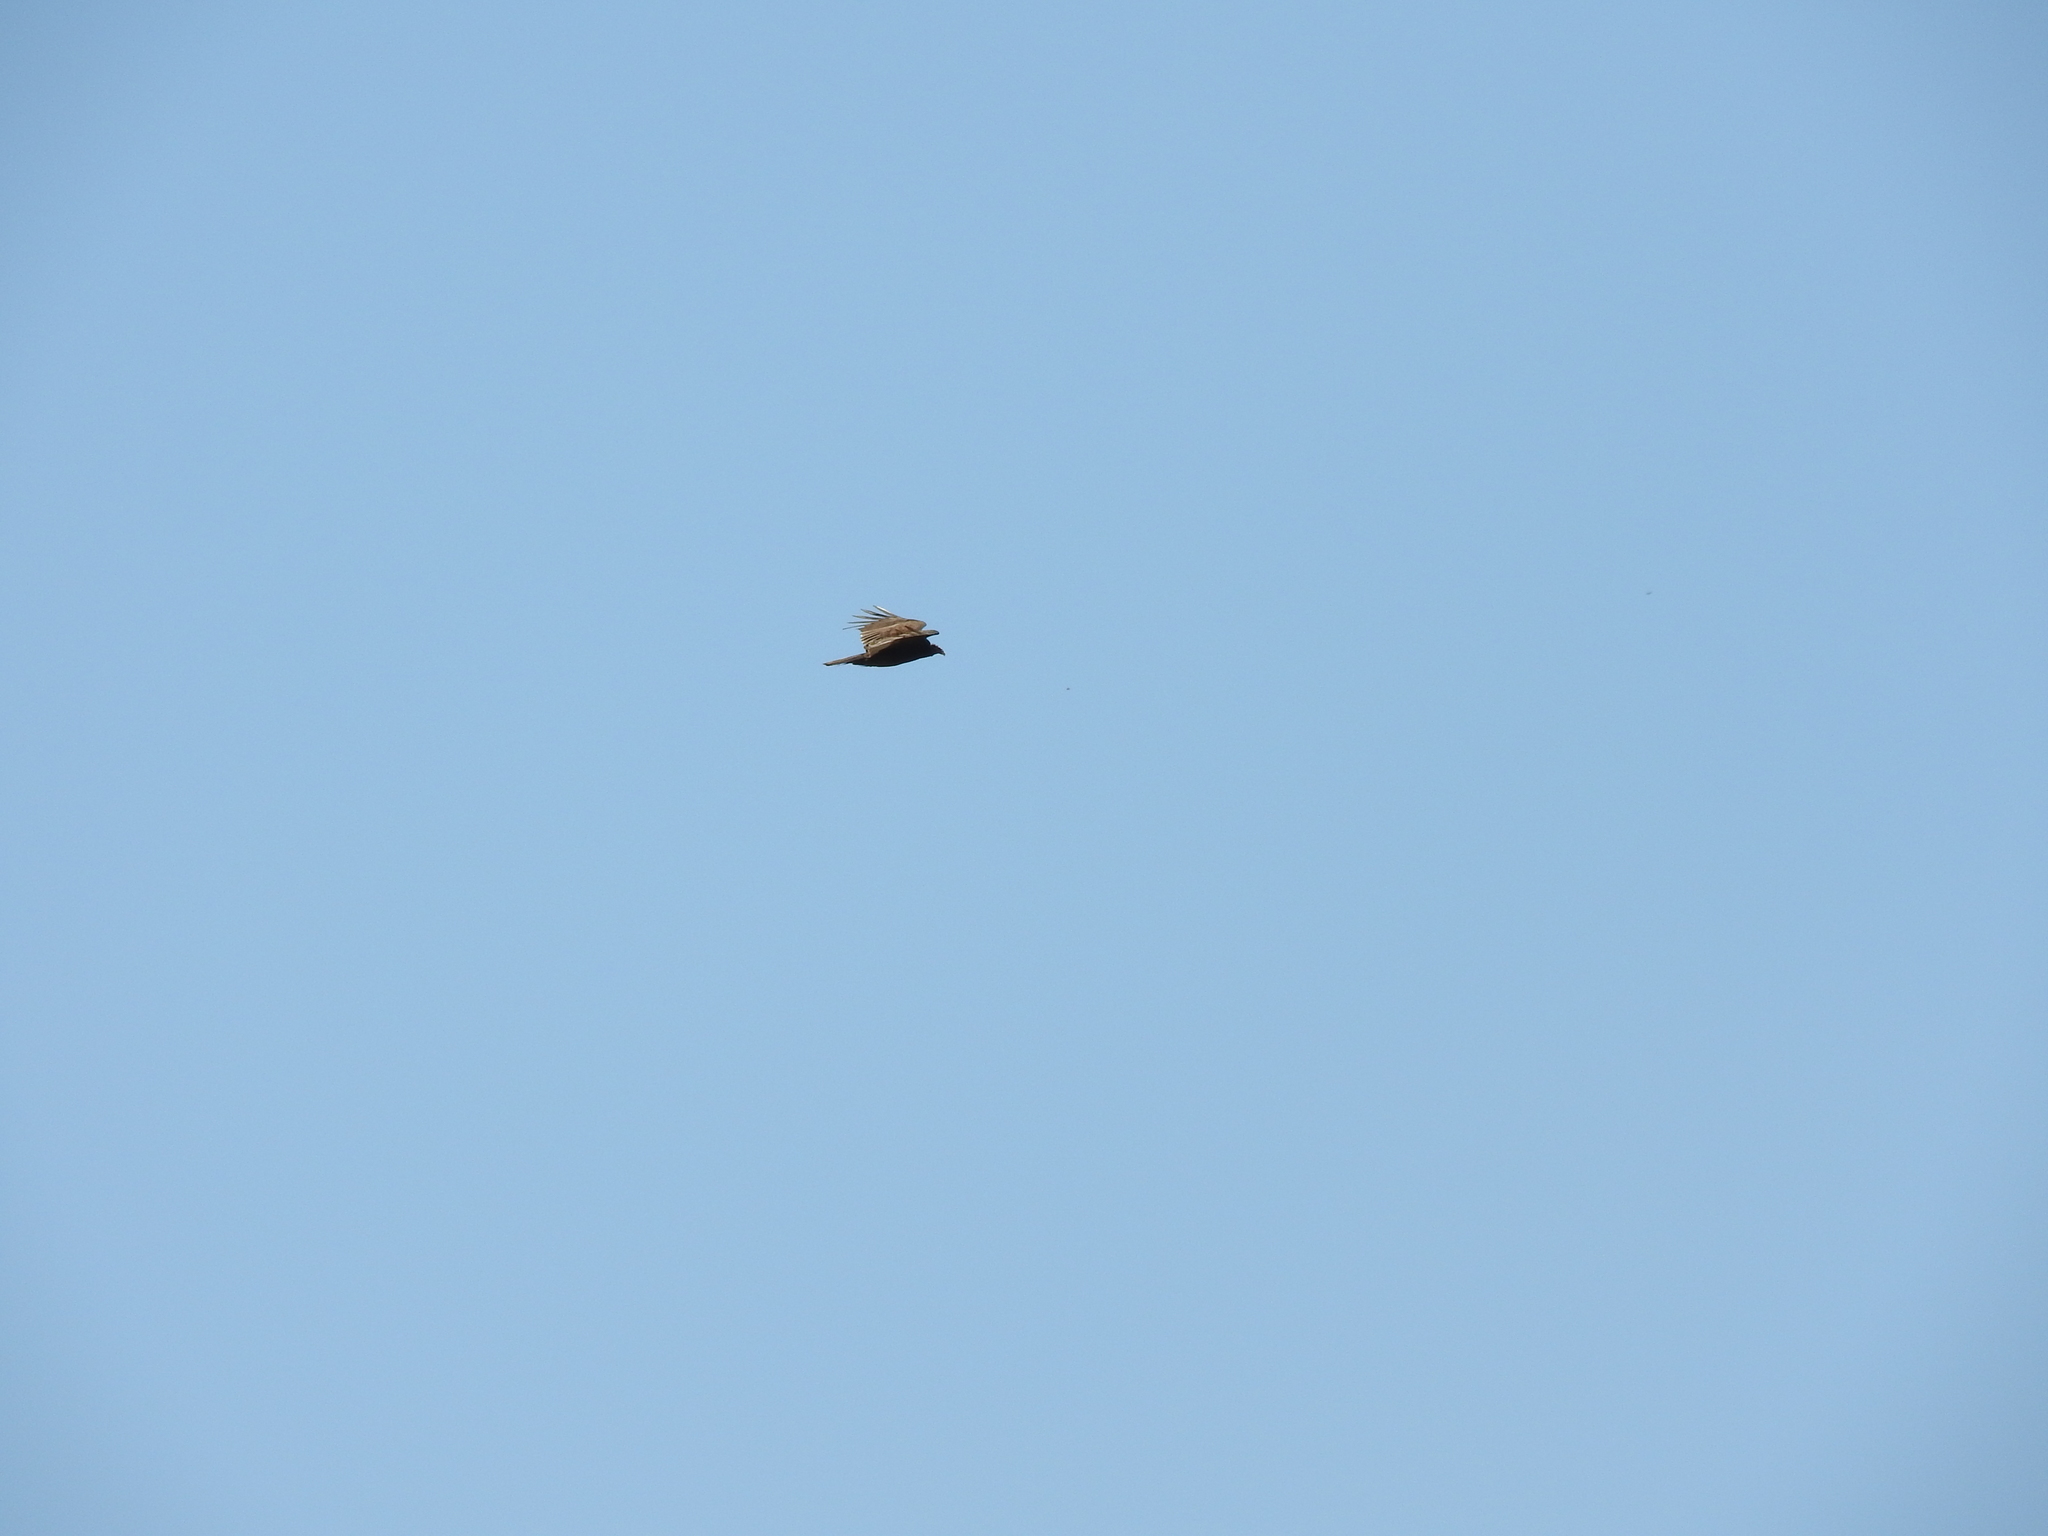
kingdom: Animalia
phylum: Chordata
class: Aves
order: Accipitriformes
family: Cathartidae
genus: Cathartes
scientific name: Cathartes aura
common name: Turkey vulture
